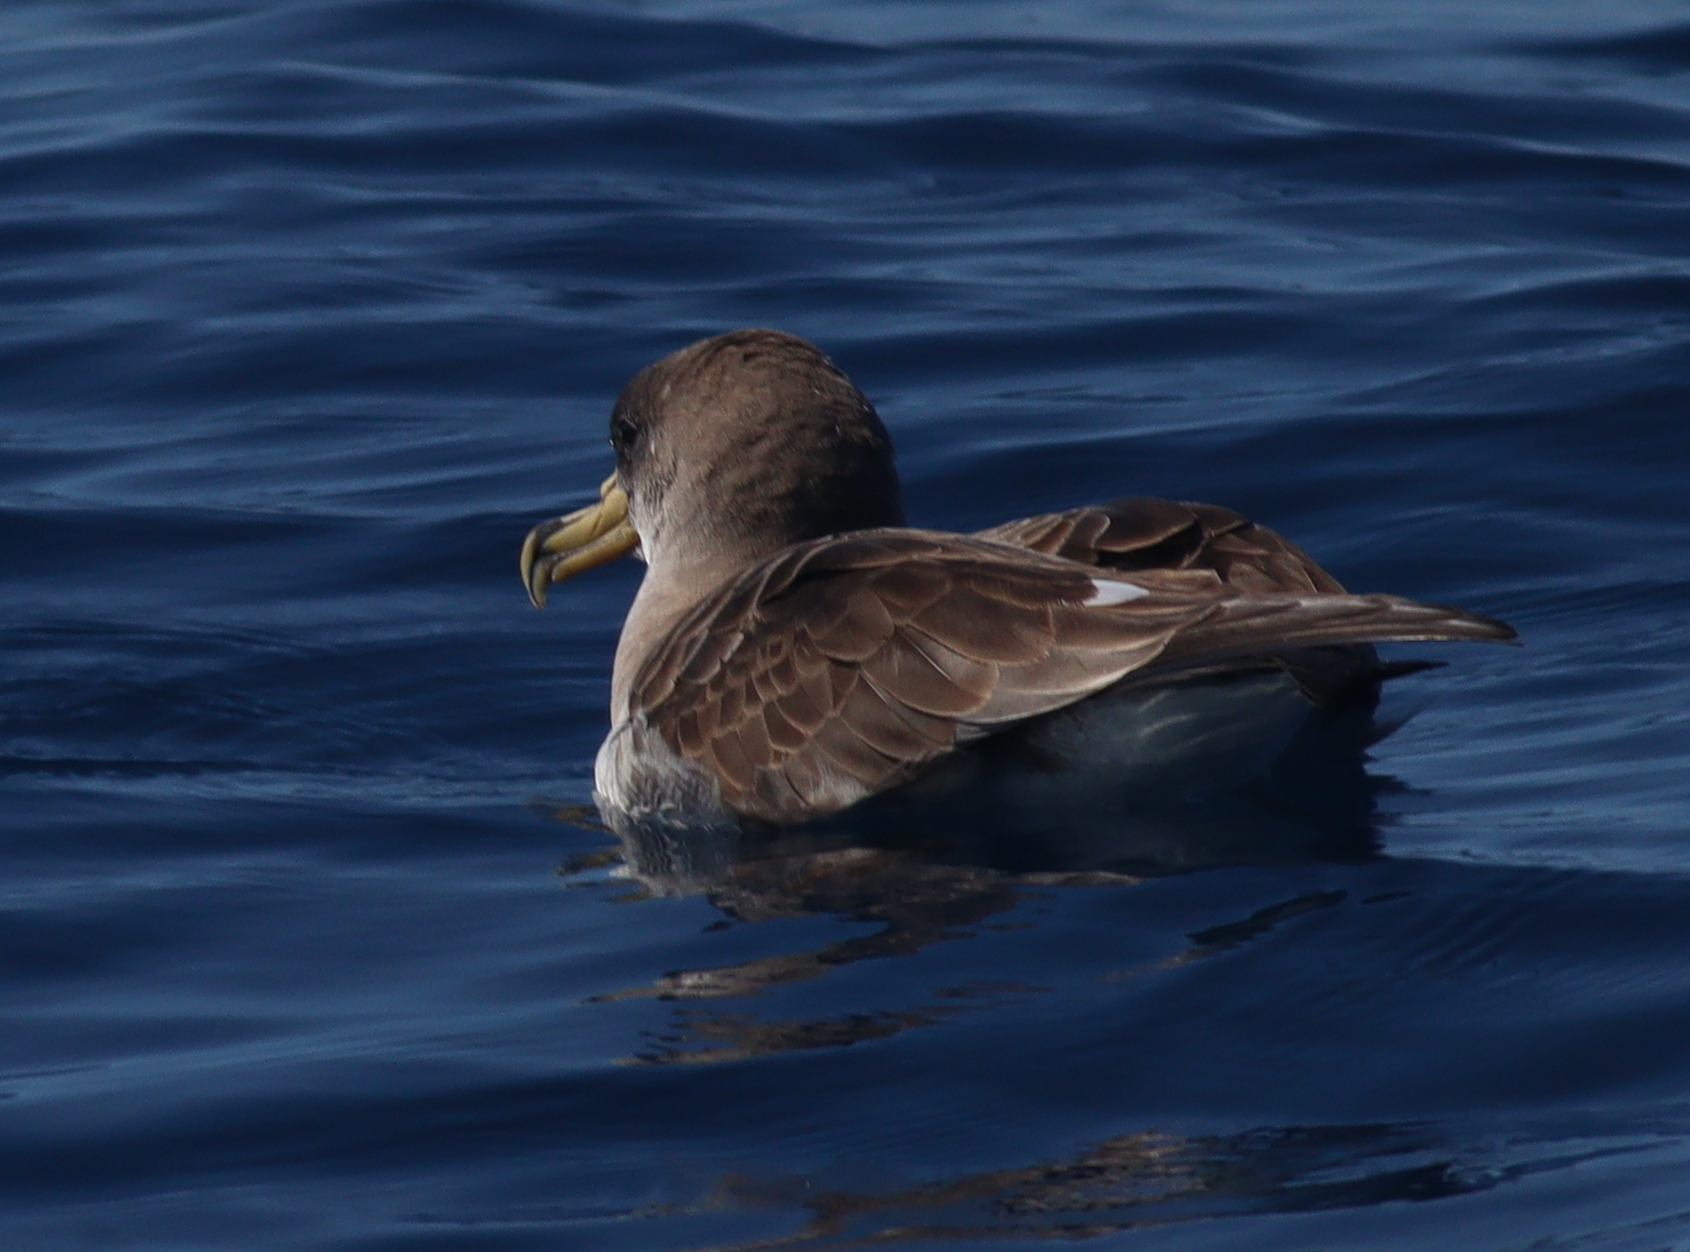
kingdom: Animalia
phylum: Chordata
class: Aves
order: Procellariiformes
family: Procellariidae
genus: Calonectris
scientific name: Calonectris diomedea
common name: Cory's shearwater
